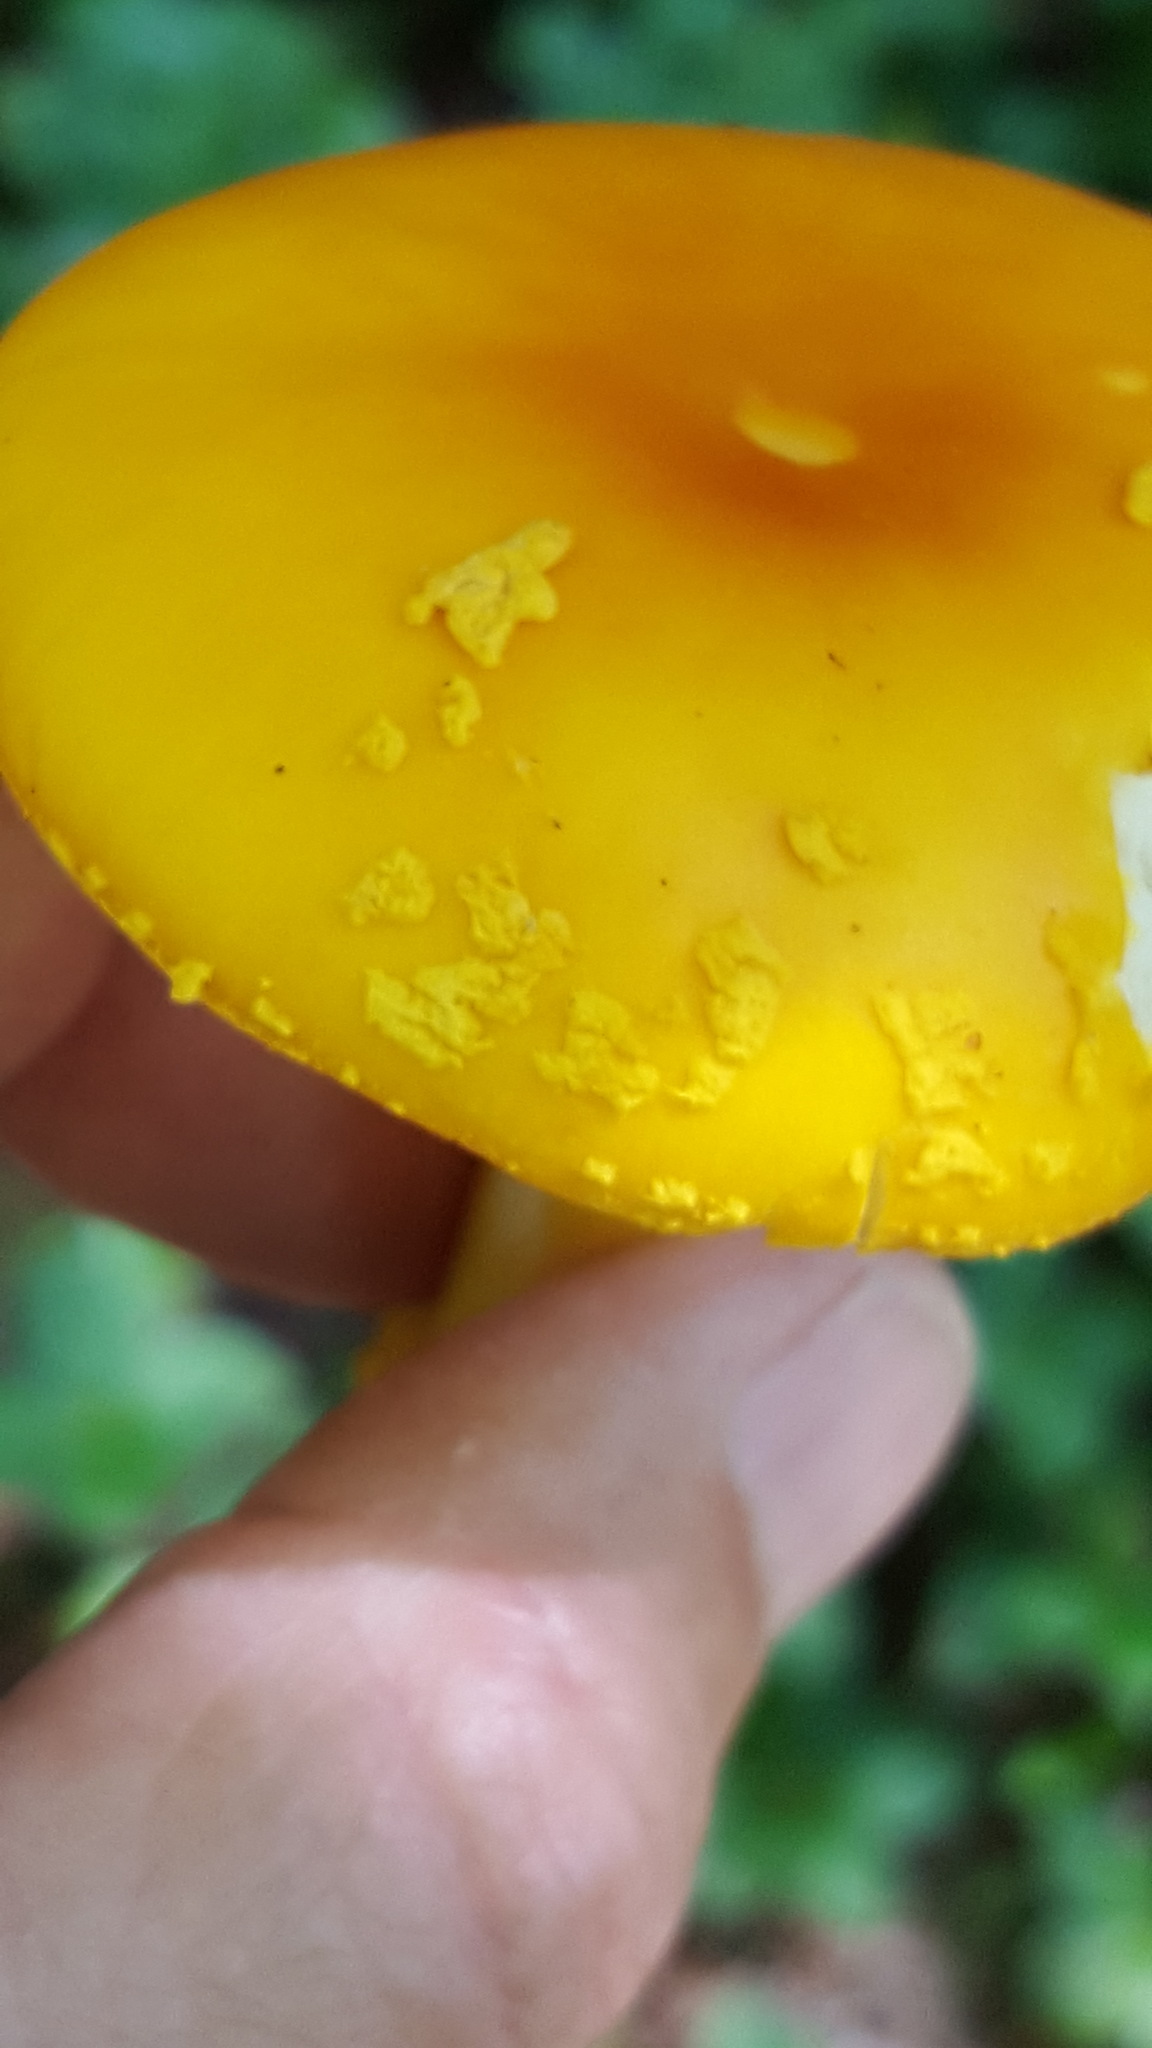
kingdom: Fungi
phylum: Basidiomycota
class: Agaricomycetes
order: Agaricales
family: Amanitaceae
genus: Amanita
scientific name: Amanita flavoconia
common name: Yellow patches
